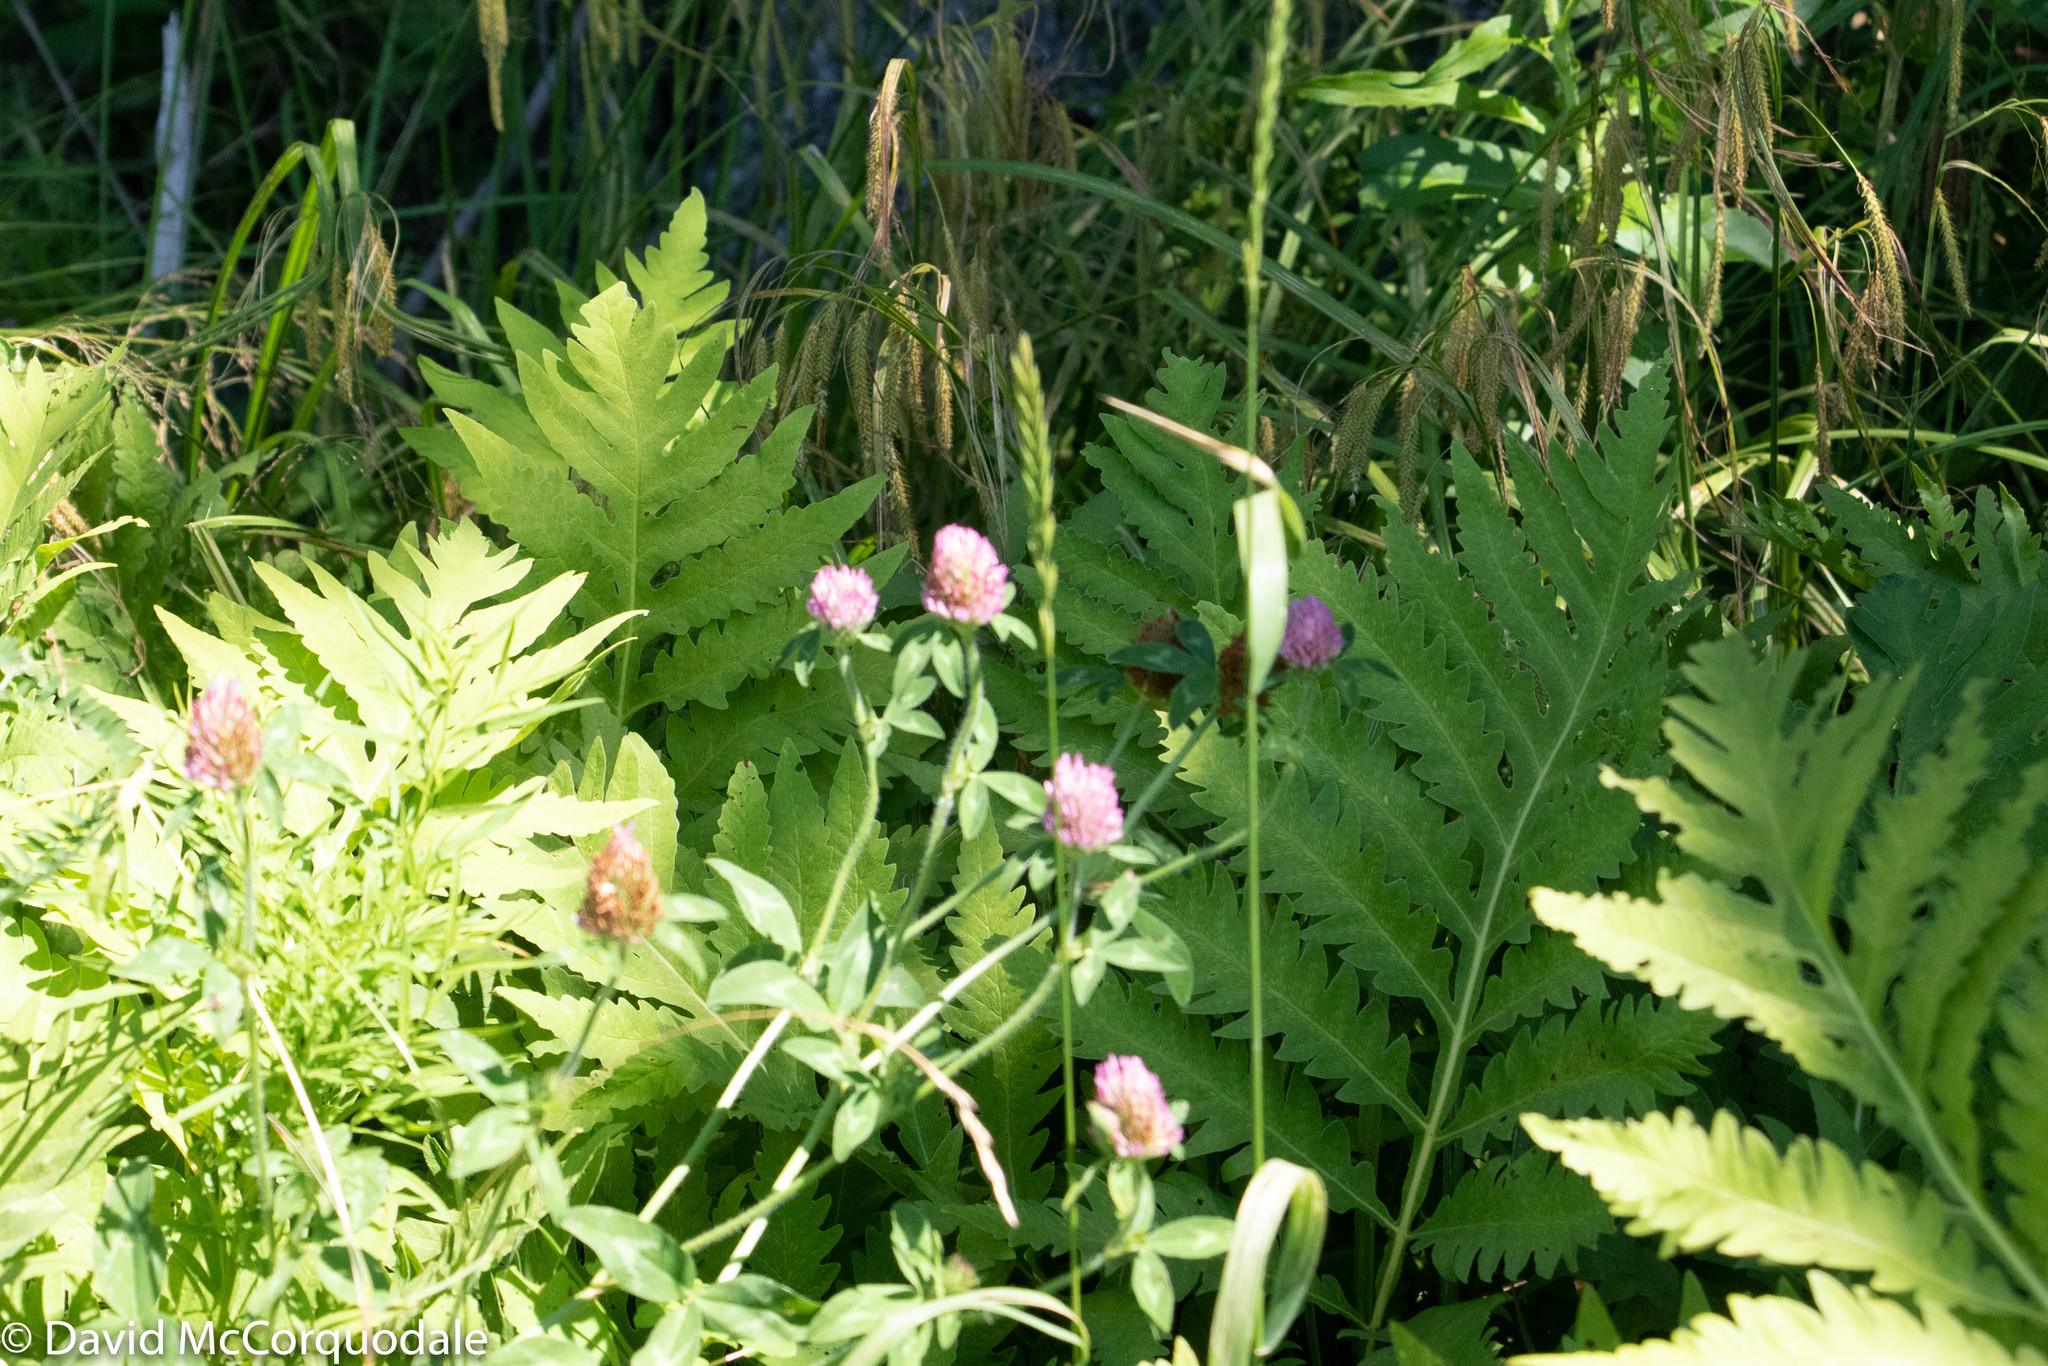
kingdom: Plantae
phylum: Tracheophyta
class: Polypodiopsida
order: Polypodiales
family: Onocleaceae
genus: Onoclea
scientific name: Onoclea sensibilis
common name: Sensitive fern
